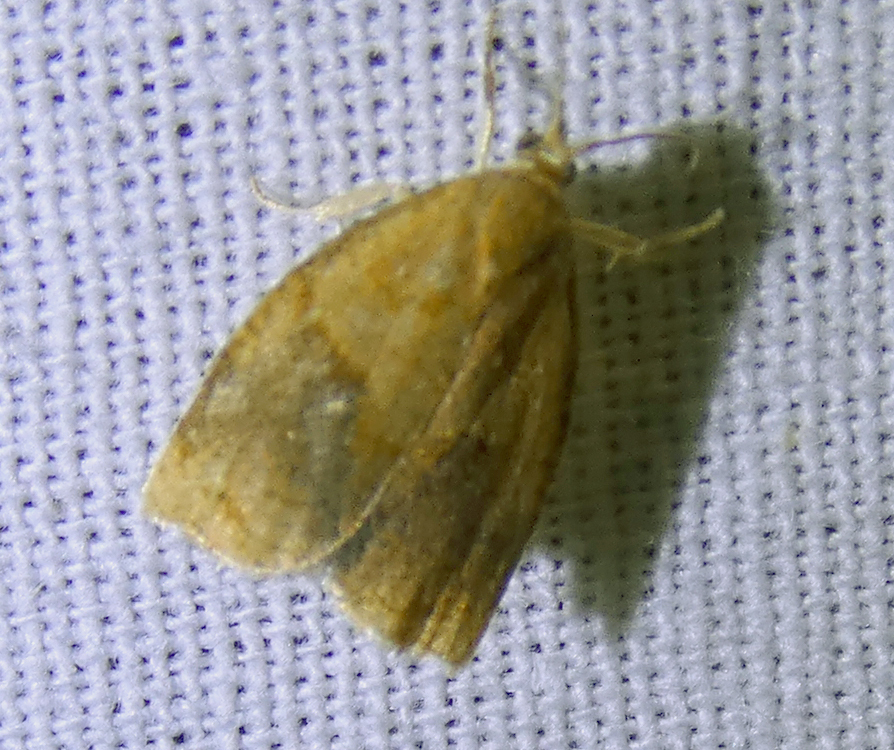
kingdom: Animalia
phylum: Arthropoda
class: Insecta
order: Lepidoptera
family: Tortricidae
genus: Archips
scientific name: Archips rosana
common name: Rose tortrix
